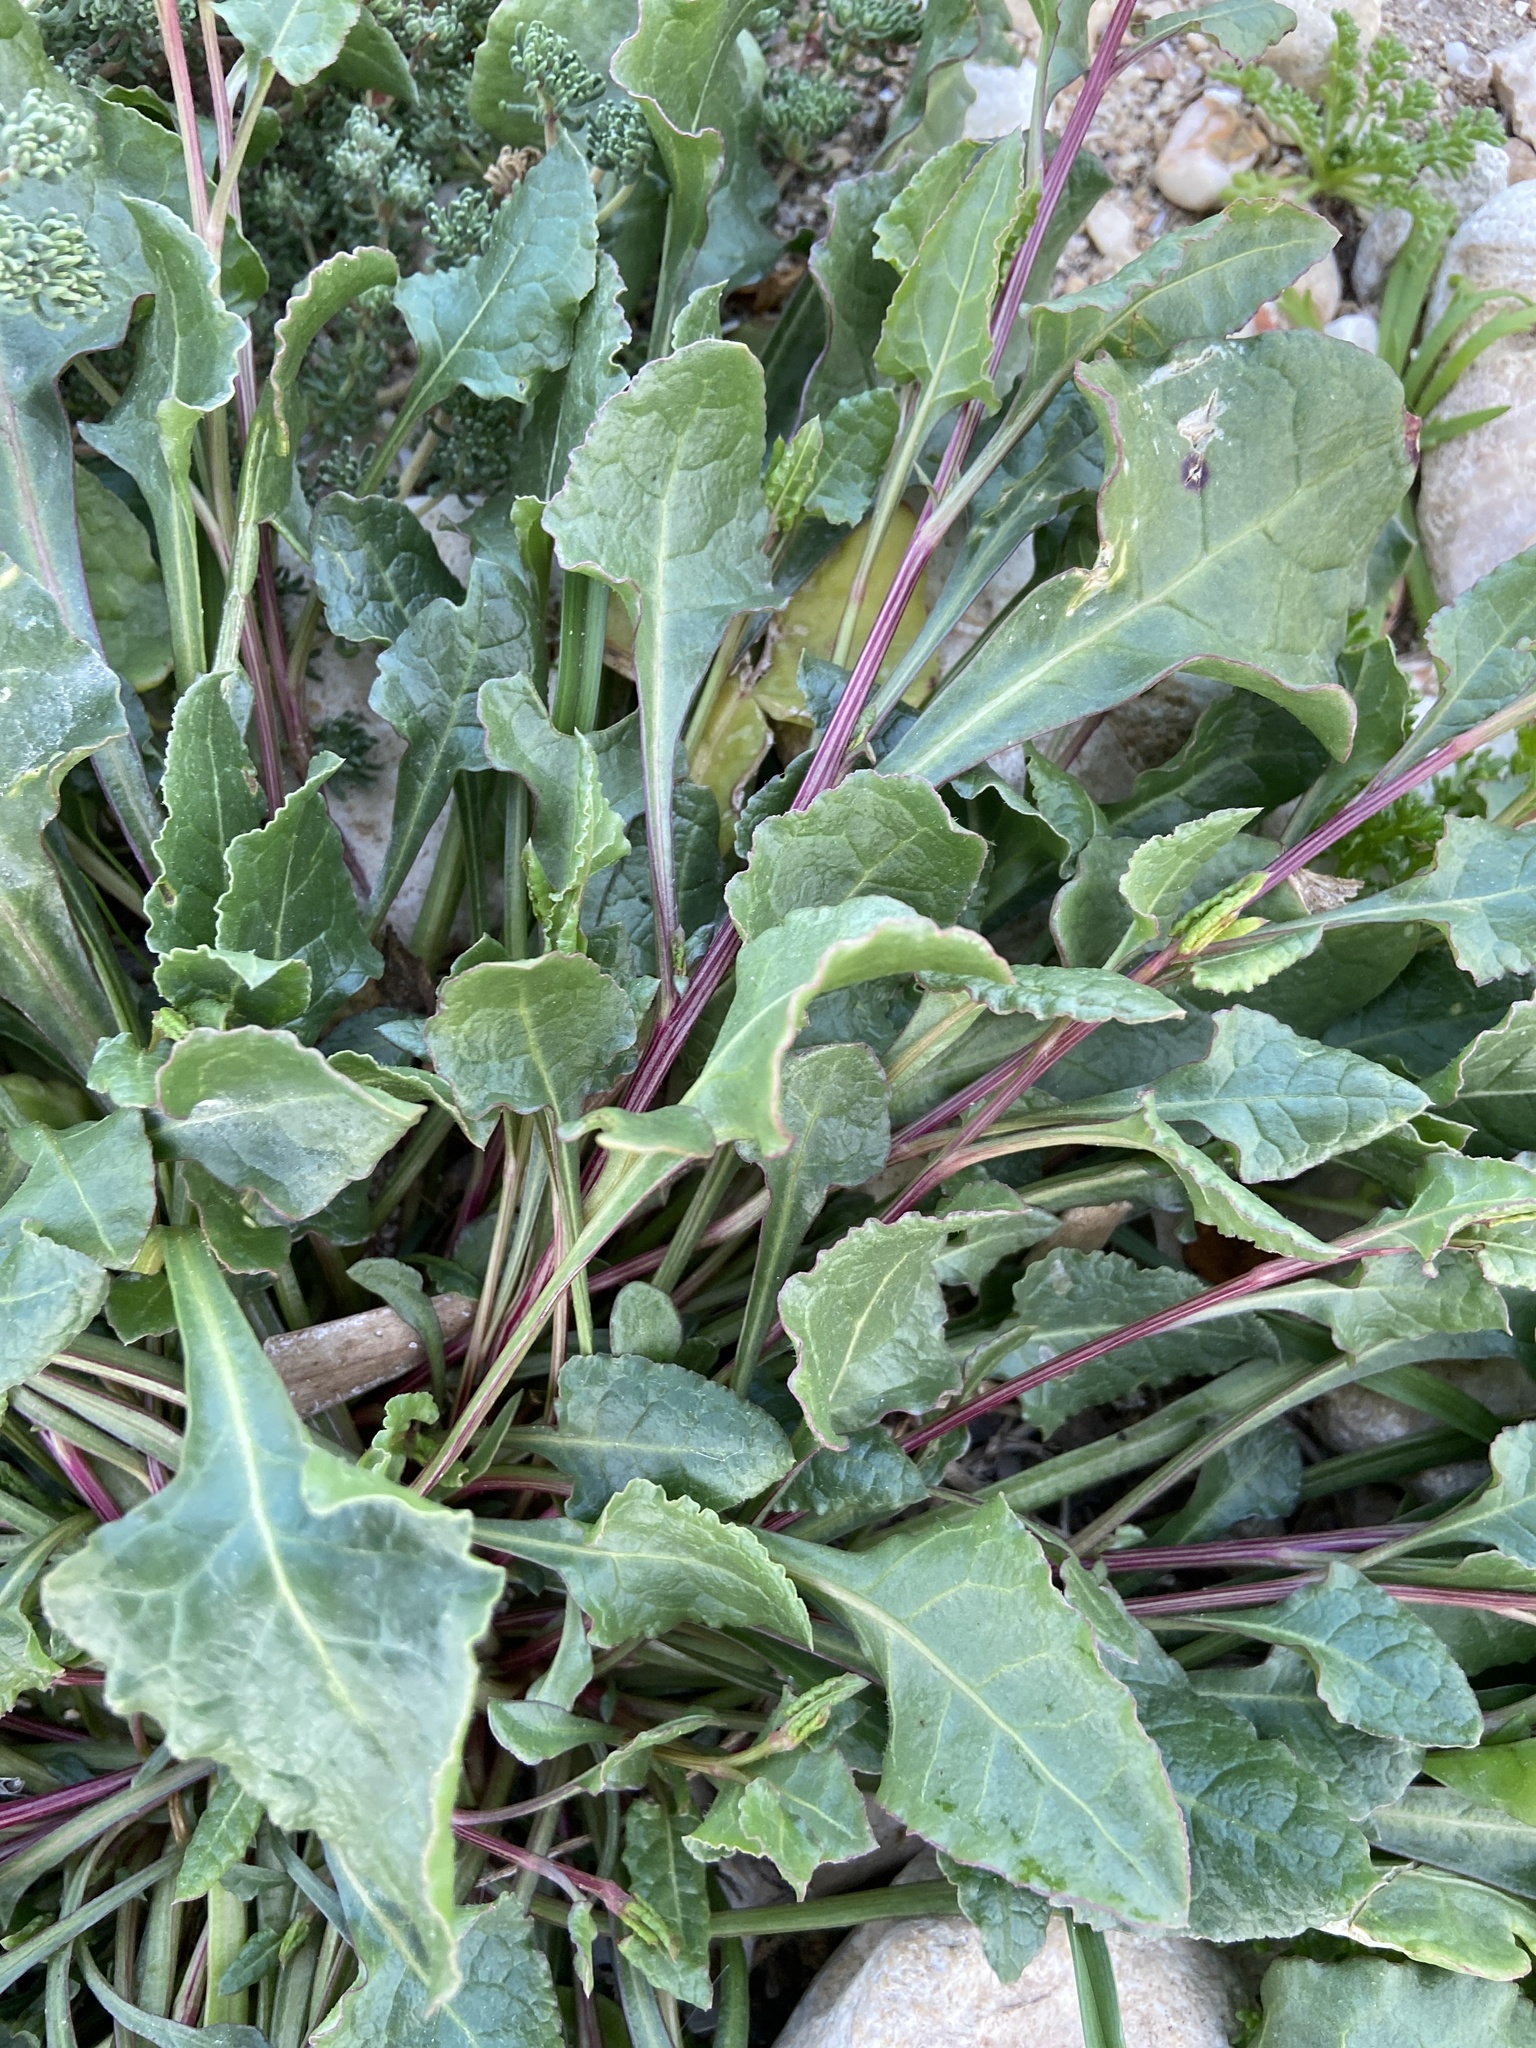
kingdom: Plantae
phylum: Tracheophyta
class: Magnoliopsida
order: Caryophyllales
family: Amaranthaceae
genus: Beta
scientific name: Beta vulgaris
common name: Beet
